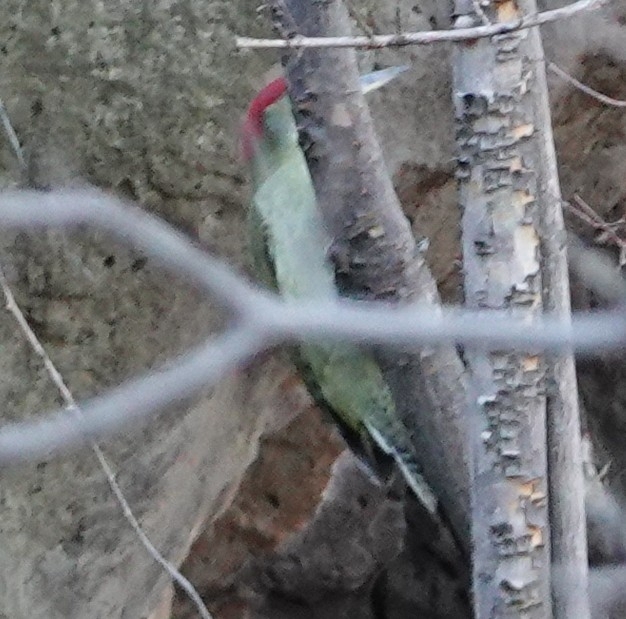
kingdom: Animalia
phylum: Chordata
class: Aves
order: Piciformes
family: Picidae
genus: Picus
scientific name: Picus viridis
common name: European green woodpecker
